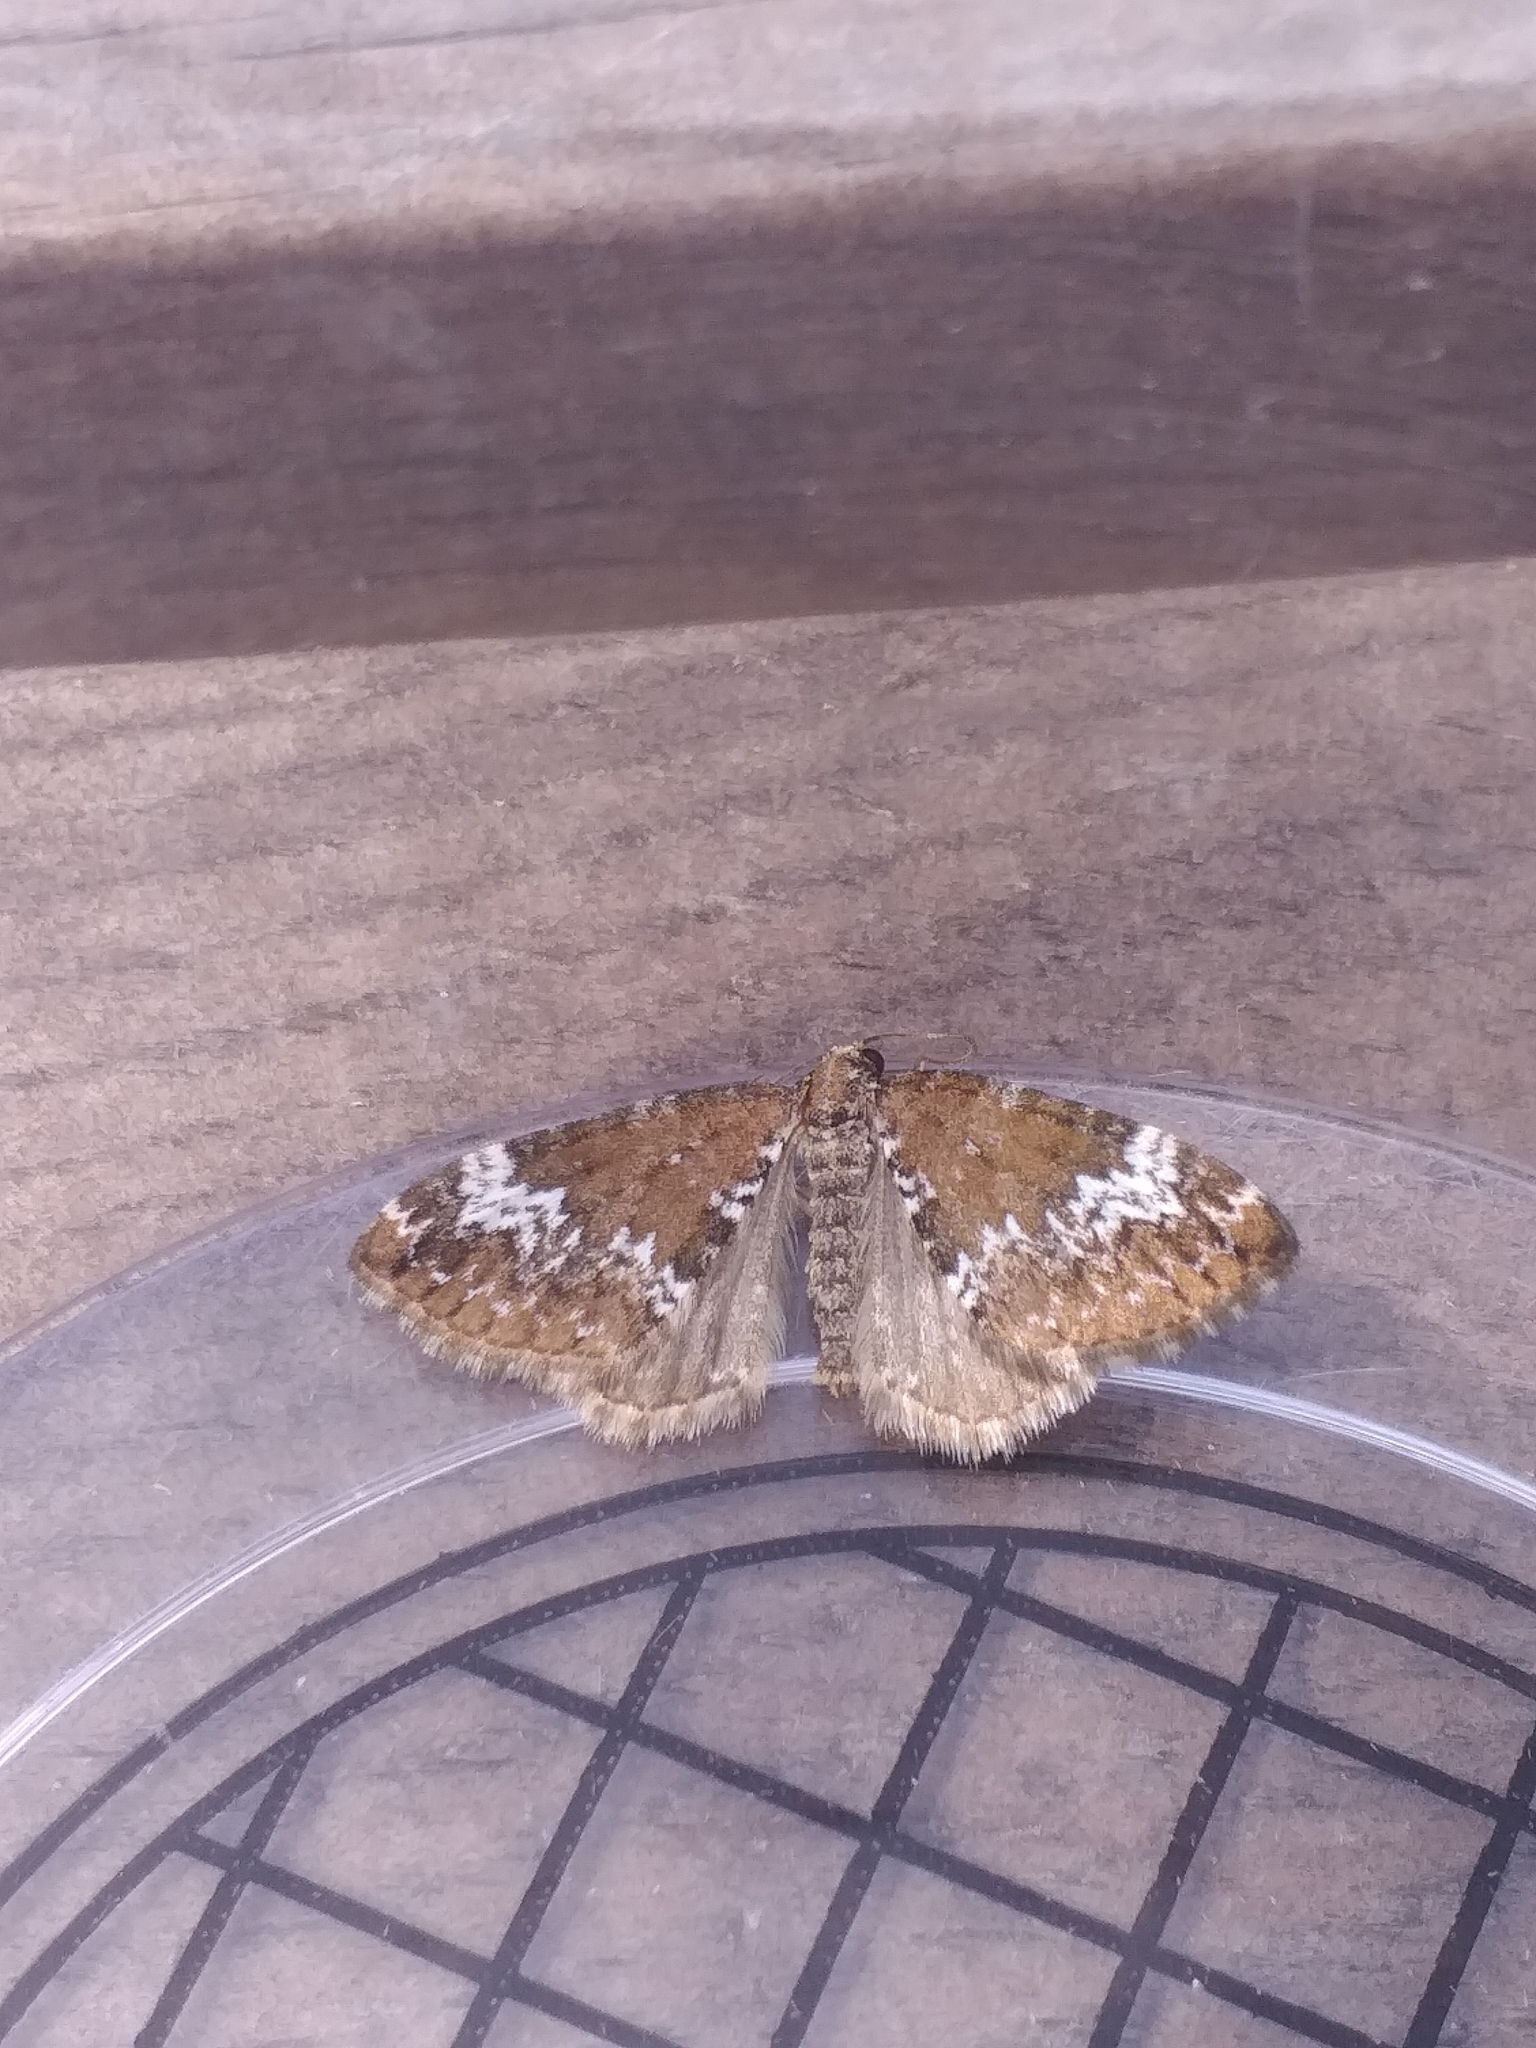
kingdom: Animalia
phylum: Arthropoda
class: Insecta
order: Lepidoptera
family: Geometridae
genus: Perizoma
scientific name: Perizoma alchemillata
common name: Small rivulet
